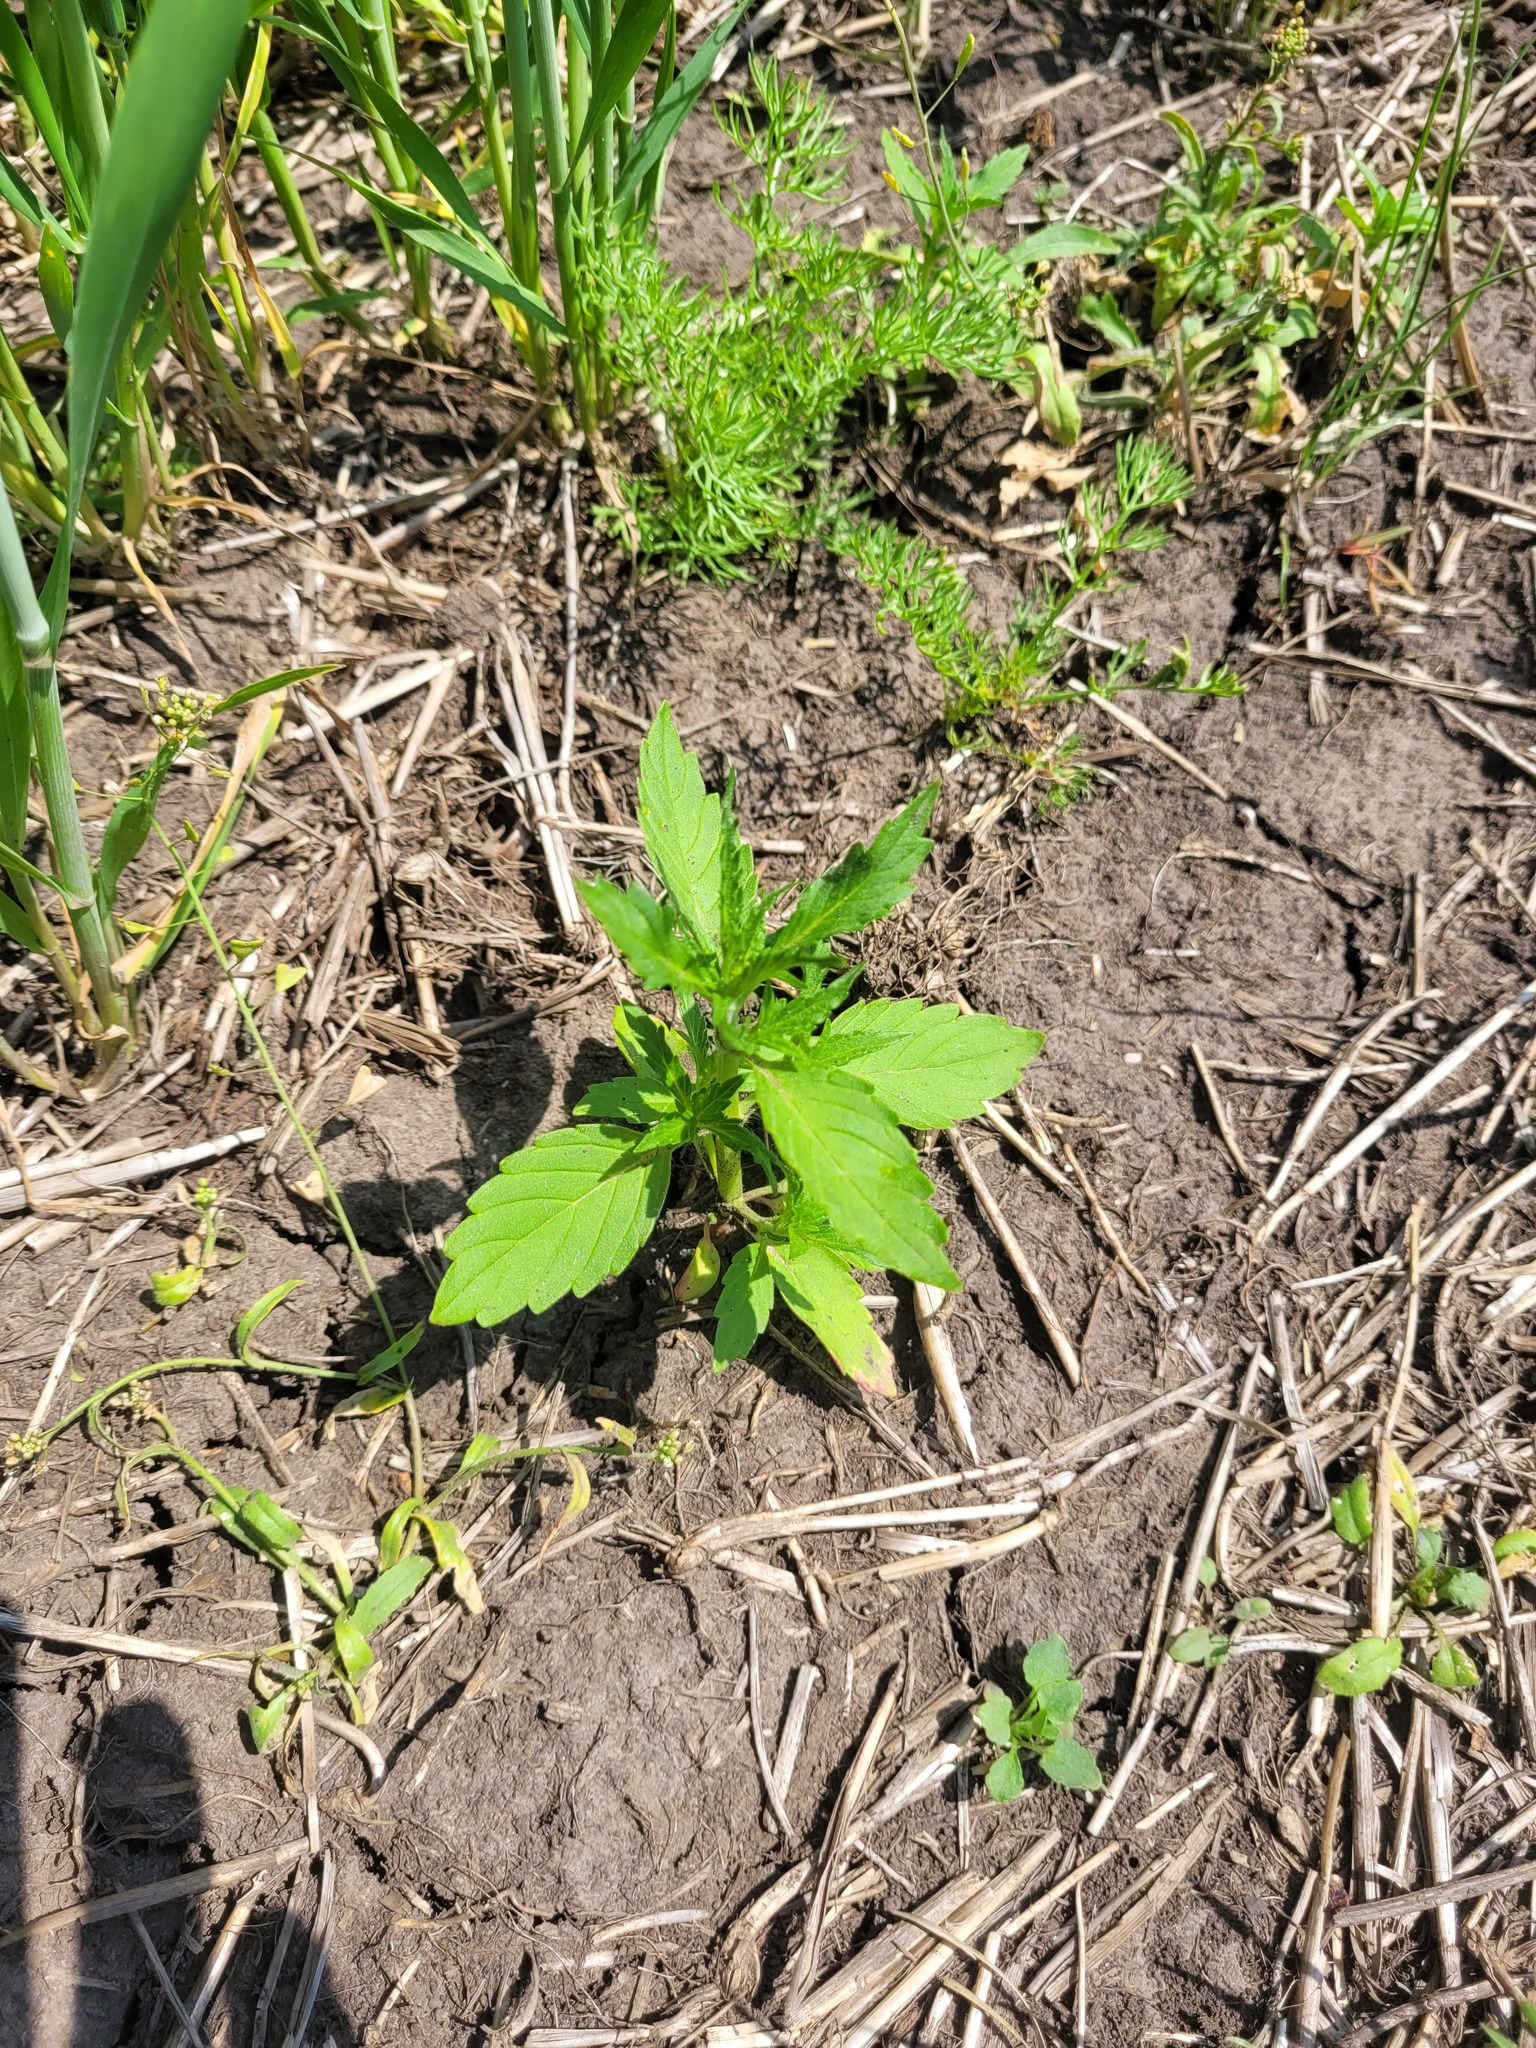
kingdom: Plantae
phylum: Tracheophyta
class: Magnoliopsida
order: Lamiales
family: Lamiaceae
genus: Galeopsis
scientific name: Galeopsis ladanum
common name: Broad-leaved hemp-nettle
